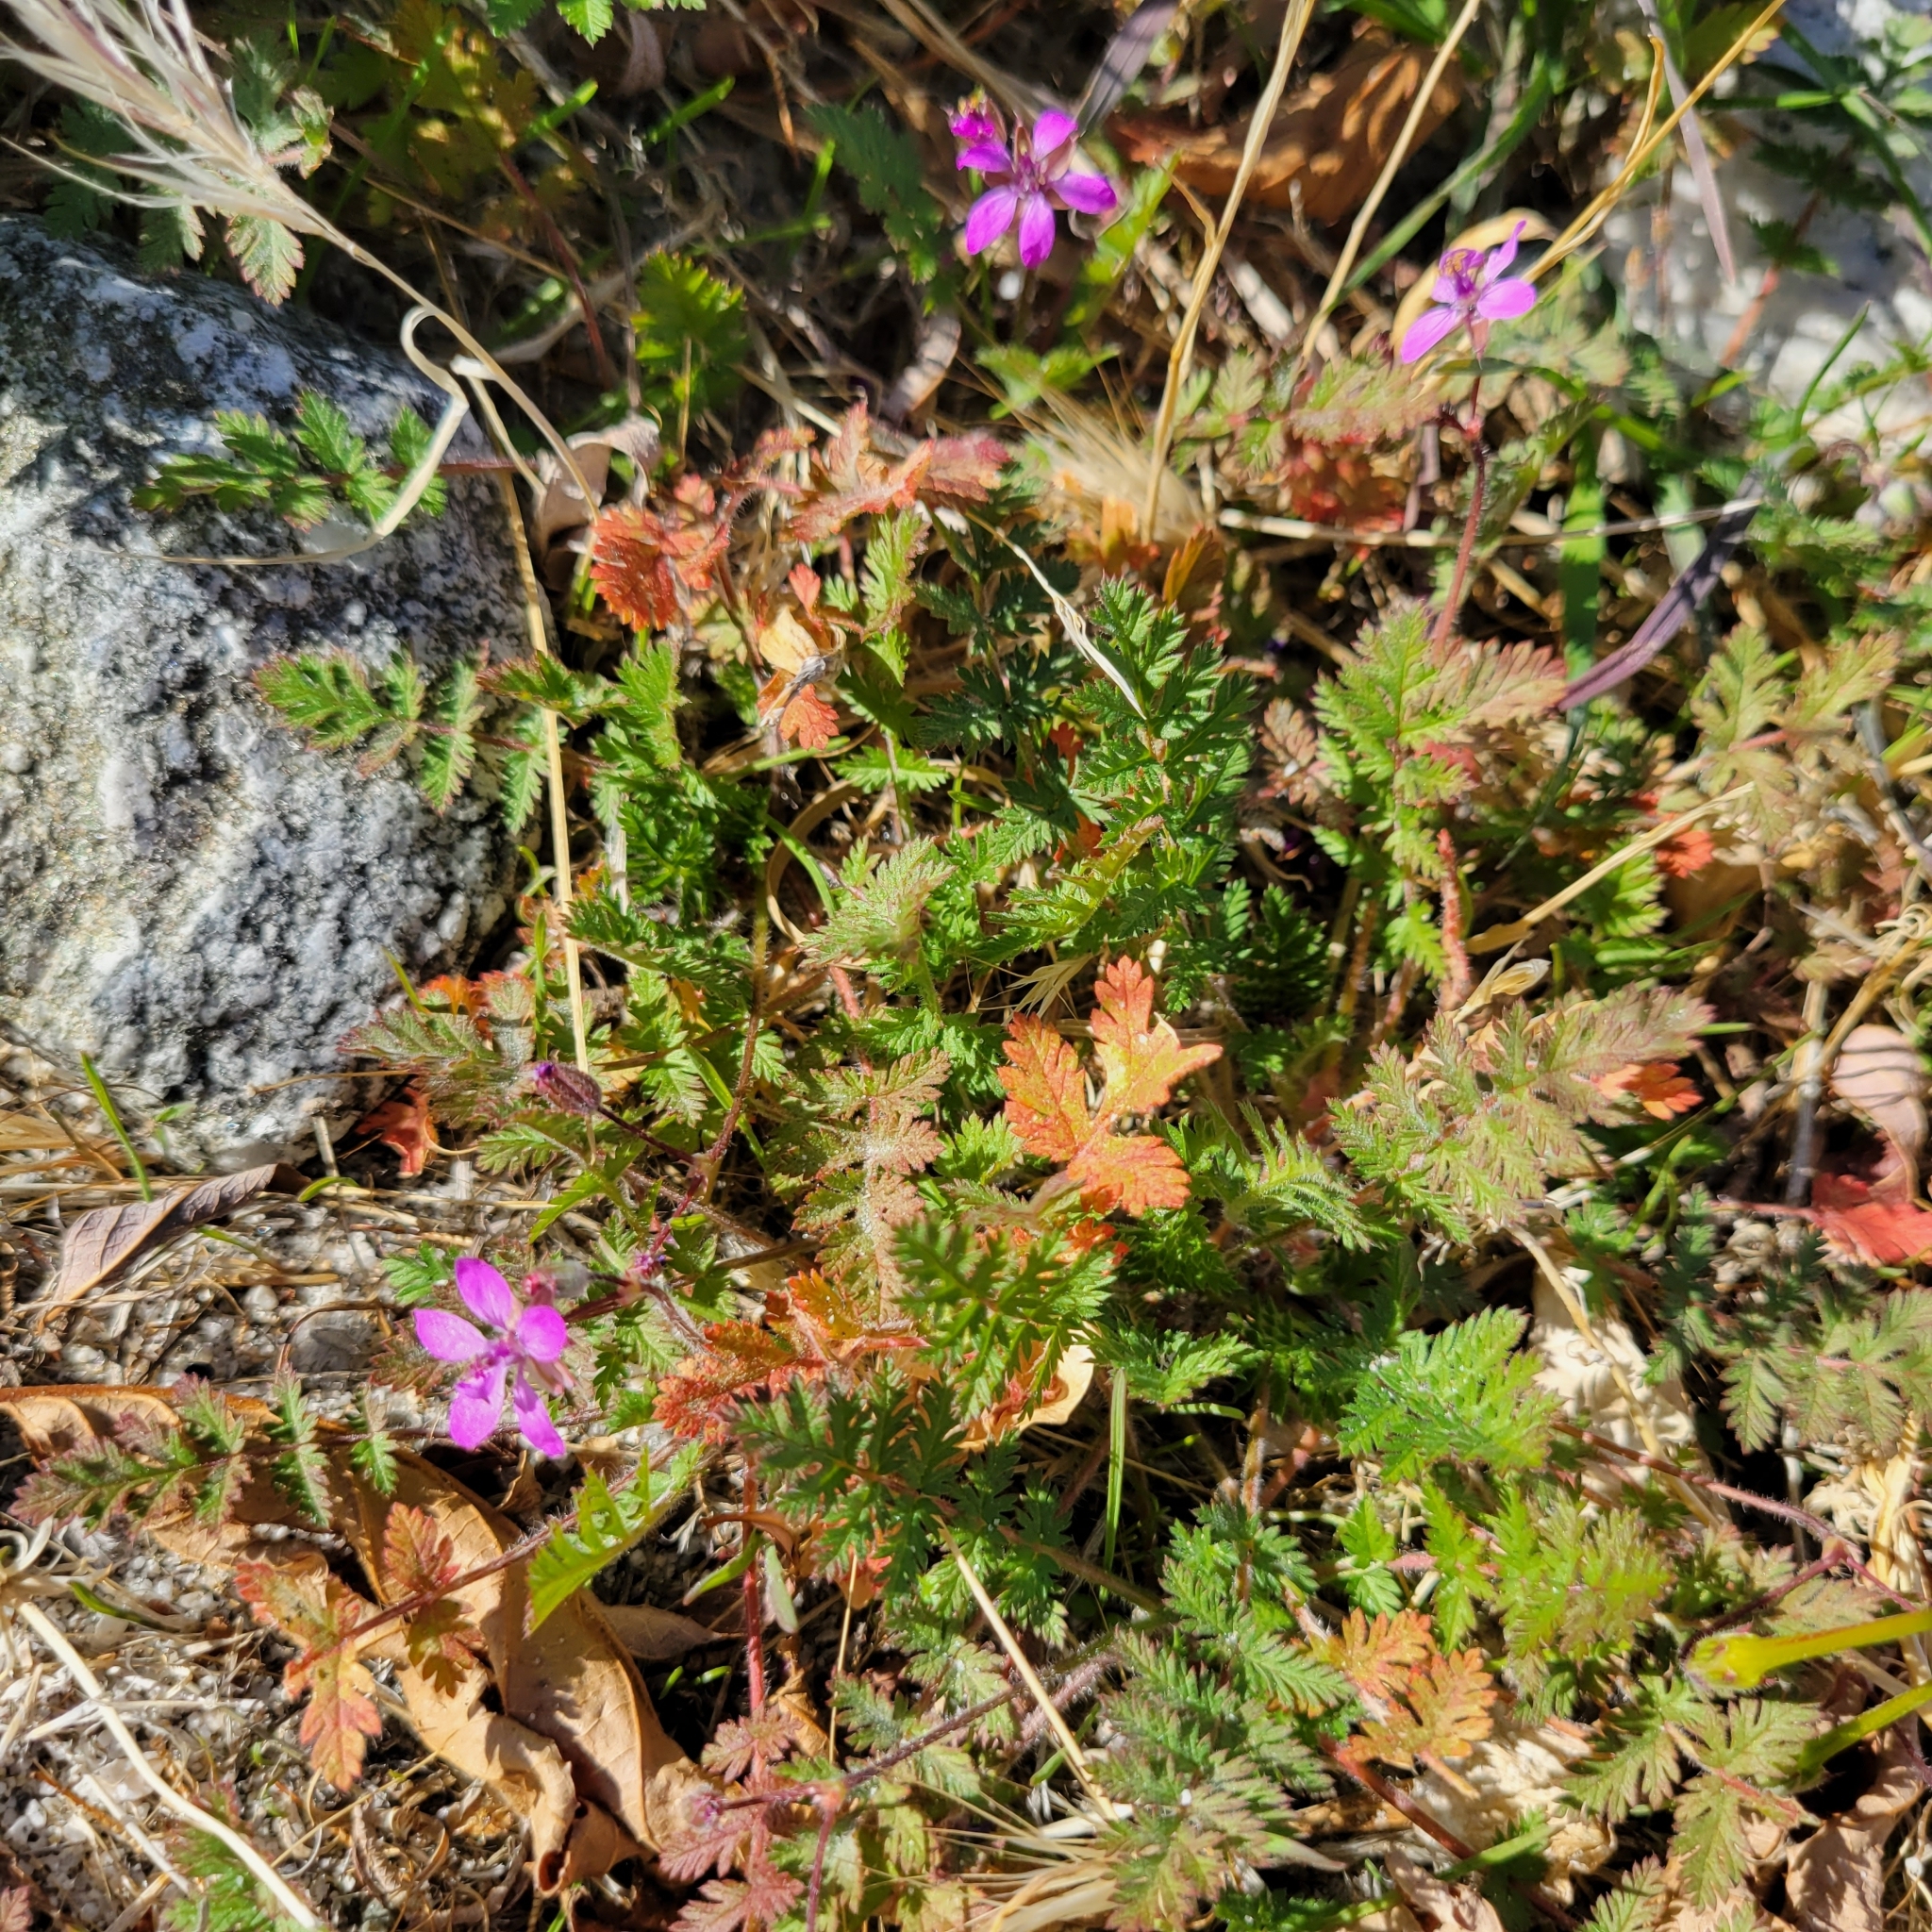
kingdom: Plantae
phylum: Tracheophyta
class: Magnoliopsida
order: Geraniales
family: Geraniaceae
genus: Erodium
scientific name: Erodium cicutarium
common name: Common stork's-bill
